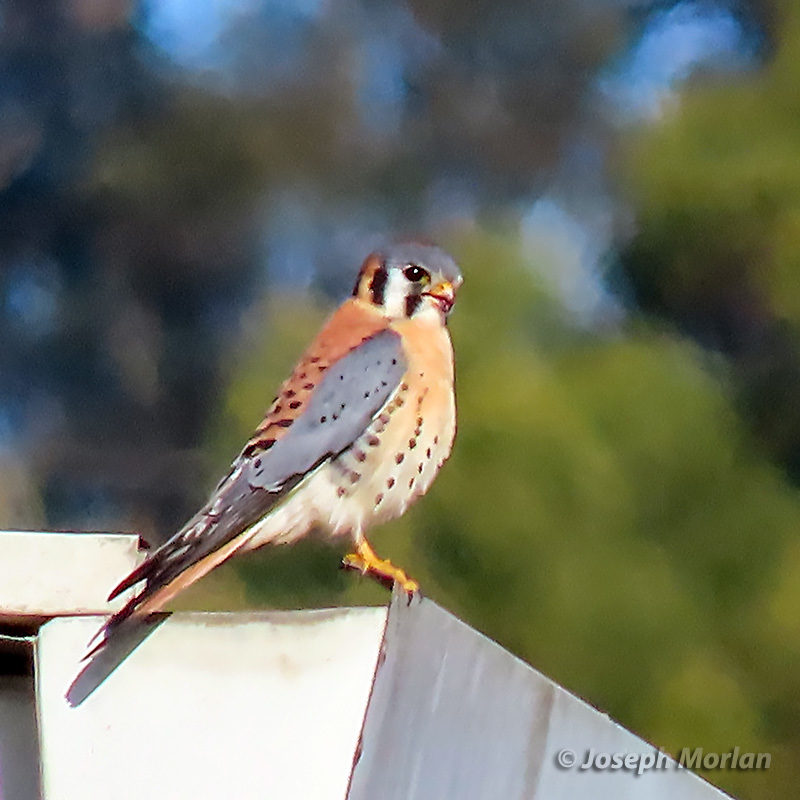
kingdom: Animalia
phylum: Chordata
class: Aves
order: Falconiformes
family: Falconidae
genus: Falco
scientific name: Falco sparverius
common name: American kestrel
